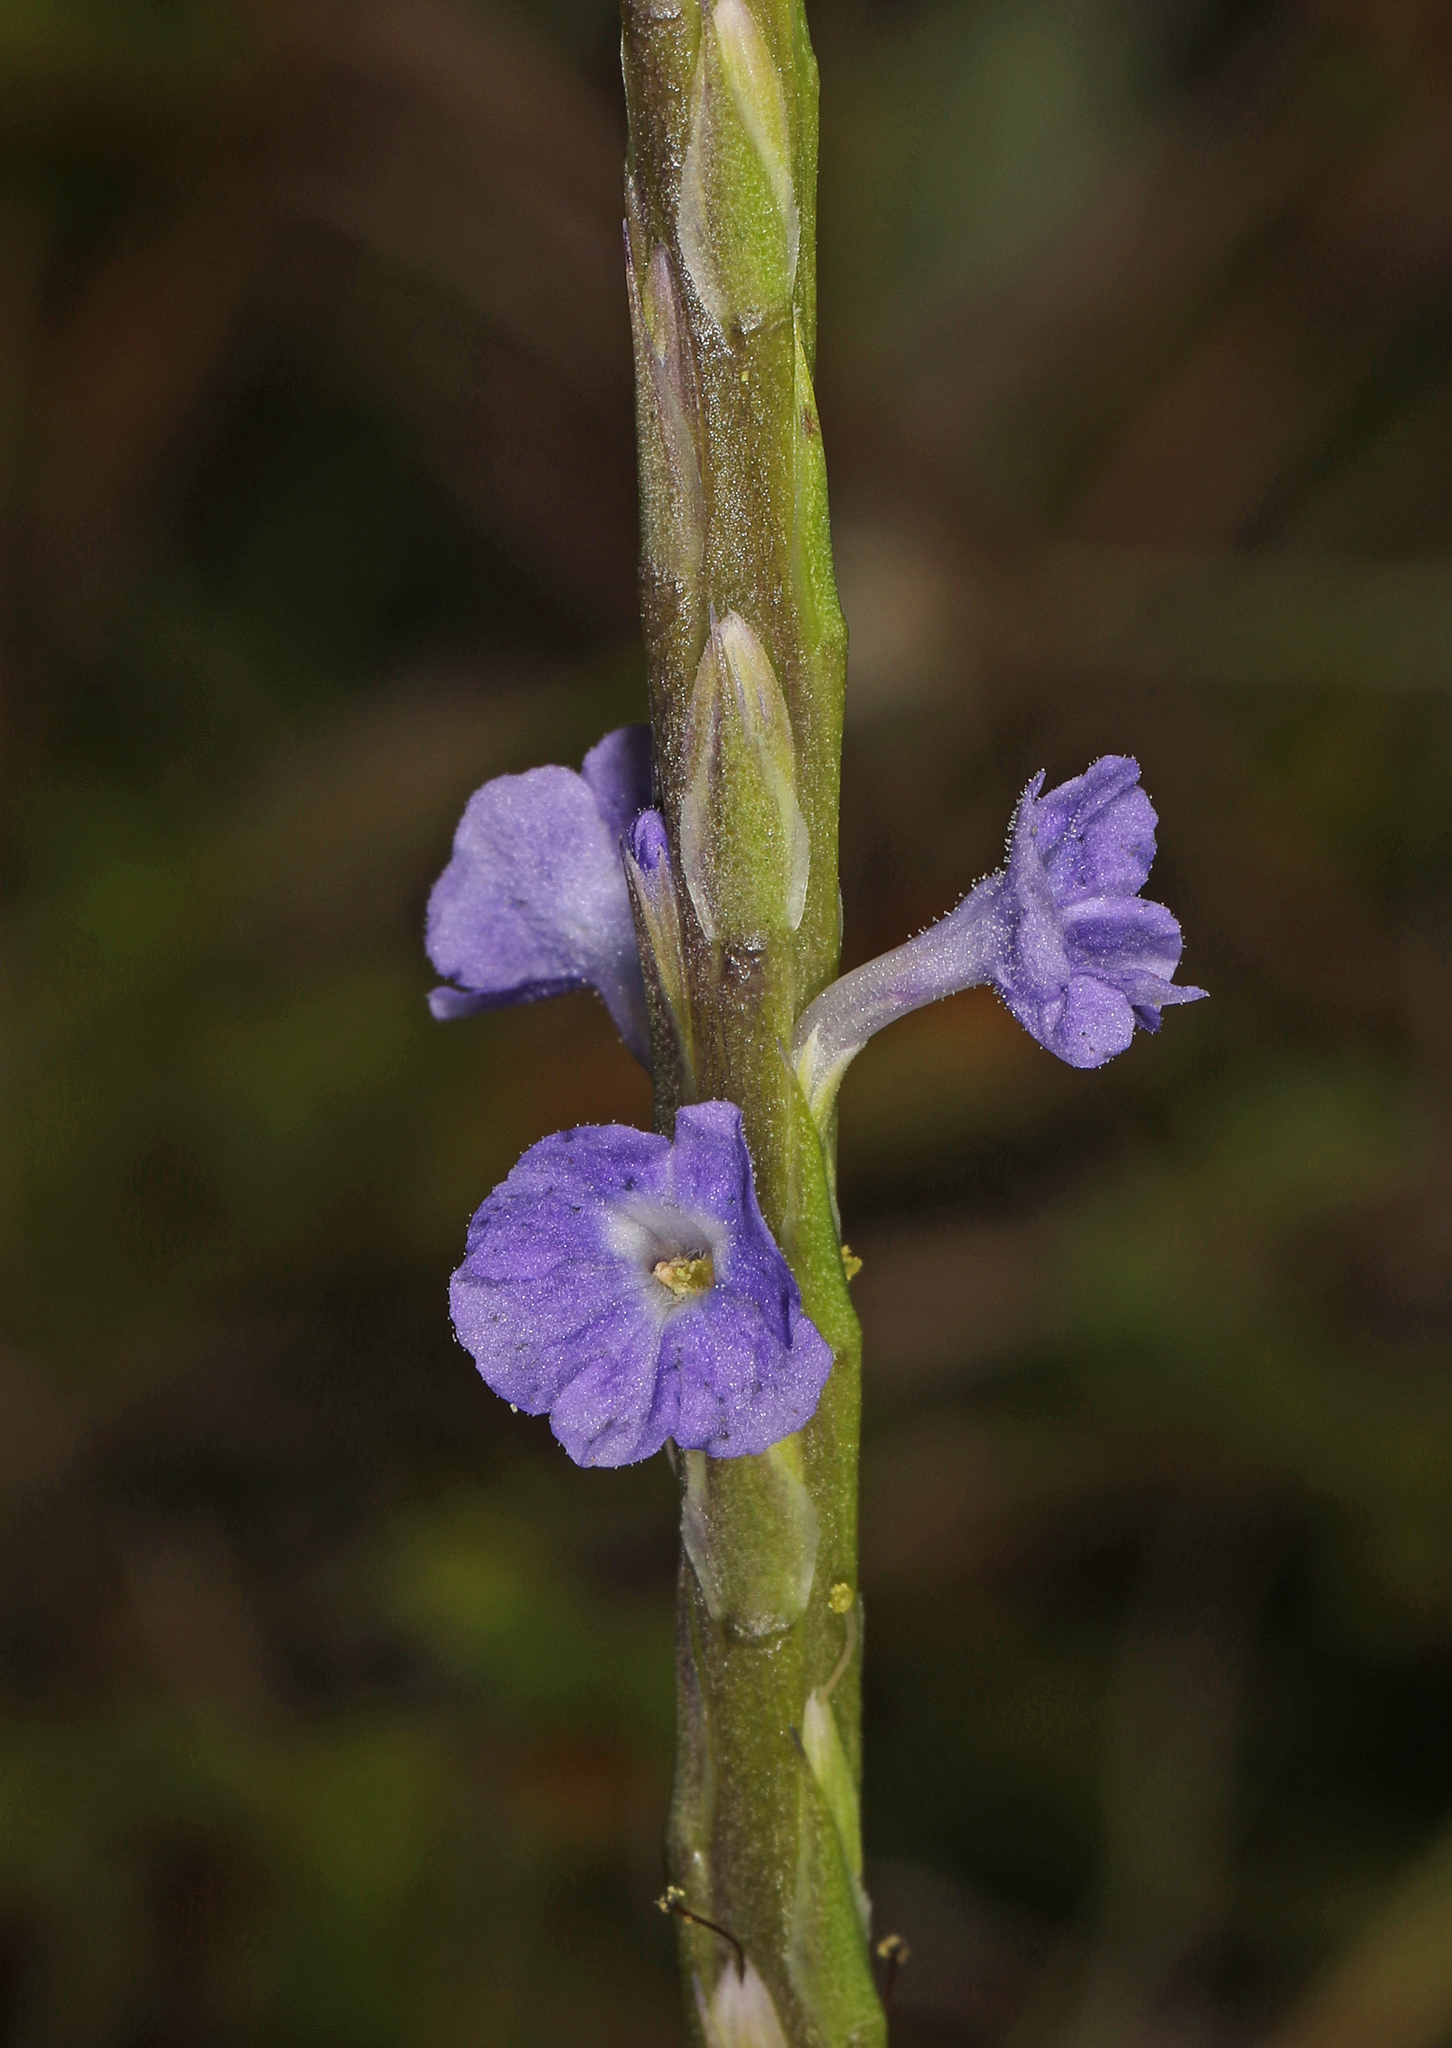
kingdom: Plantae
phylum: Tracheophyta
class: Magnoliopsida
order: Lamiales
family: Verbenaceae
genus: Stachytarpheta
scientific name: Stachytarpheta jamaicensis
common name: Light-blue snakeweed
